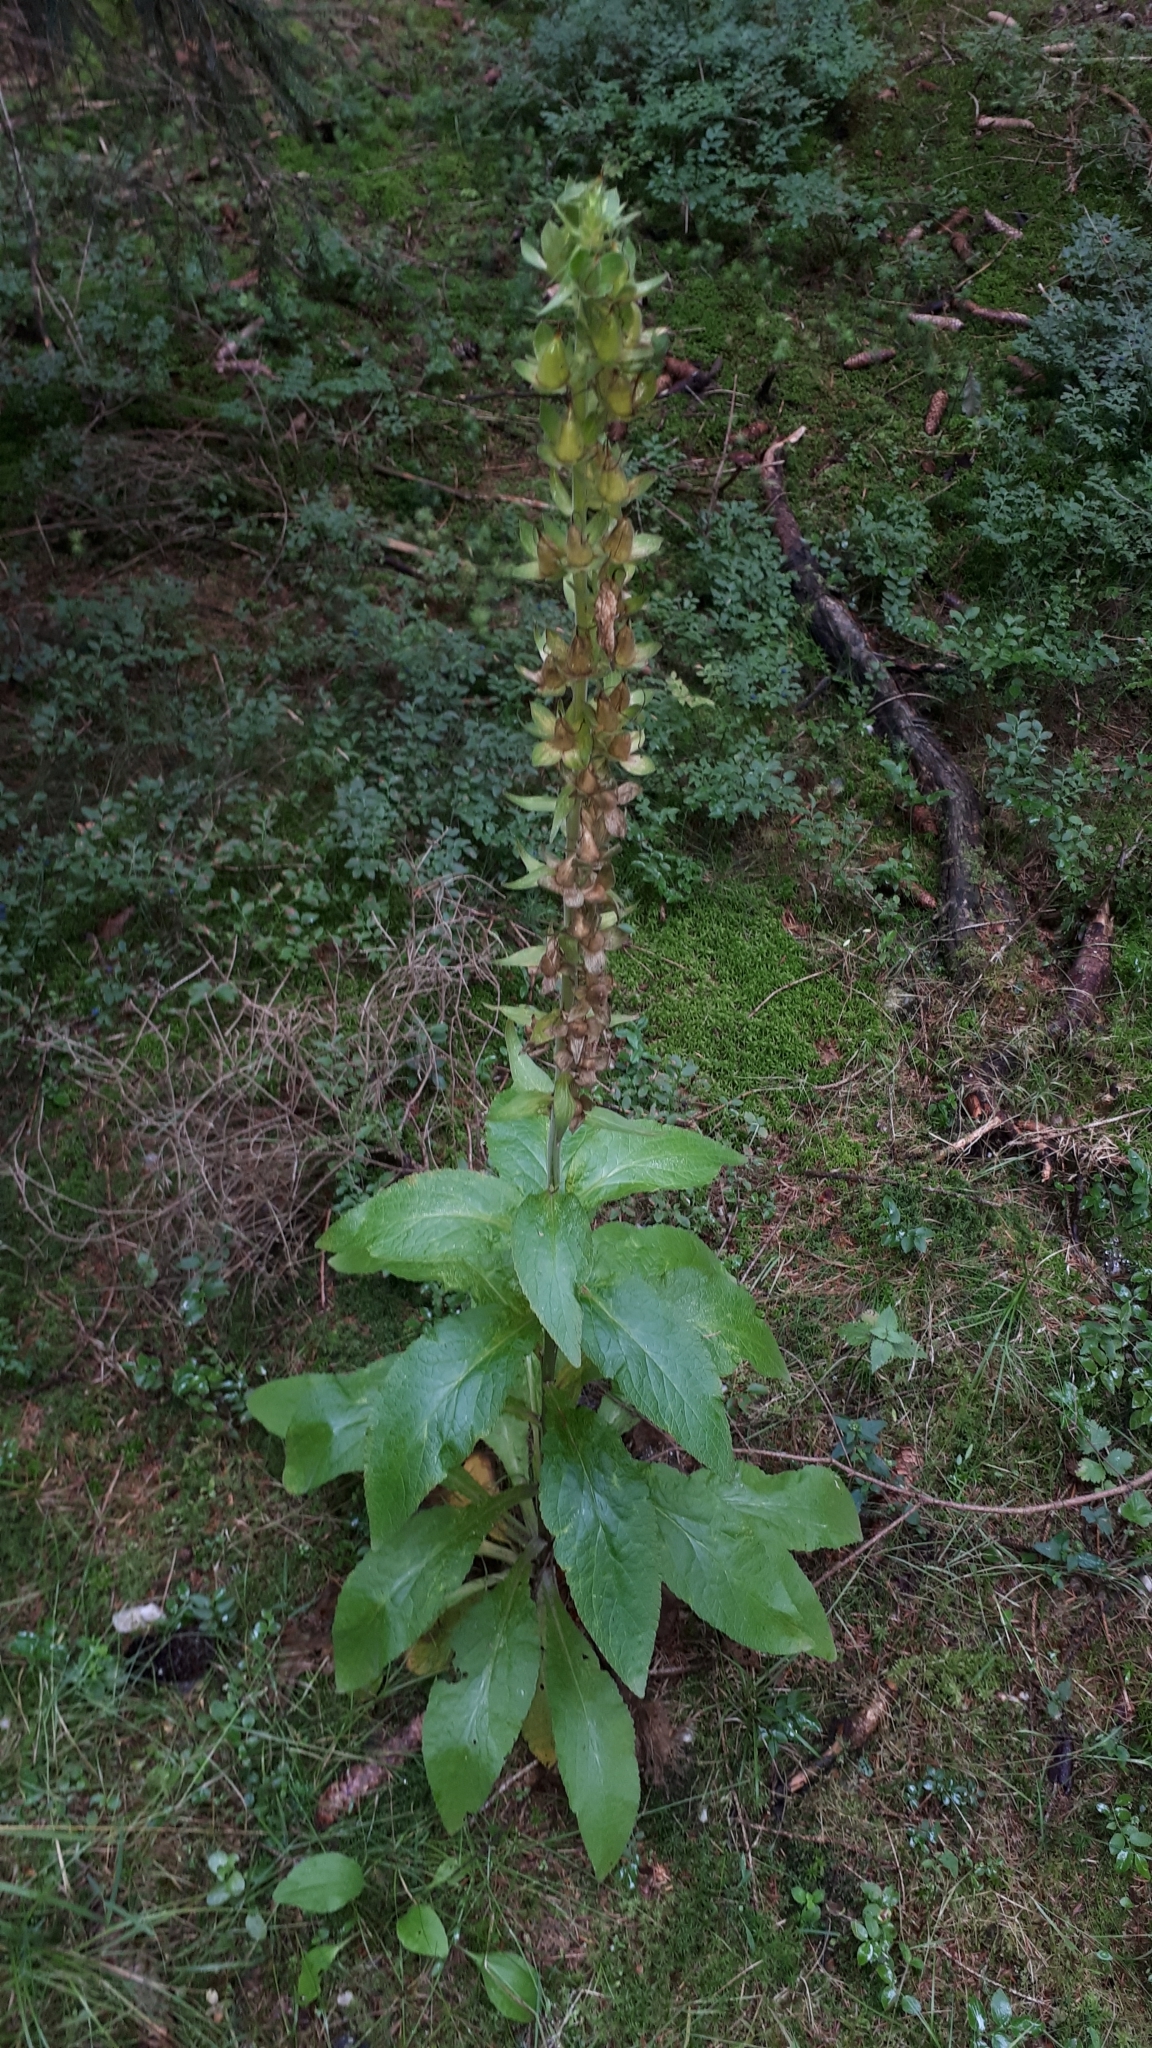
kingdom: Plantae
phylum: Tracheophyta
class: Magnoliopsida
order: Lamiales
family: Plantaginaceae
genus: Digitalis
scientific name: Digitalis purpurea
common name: Foxglove
